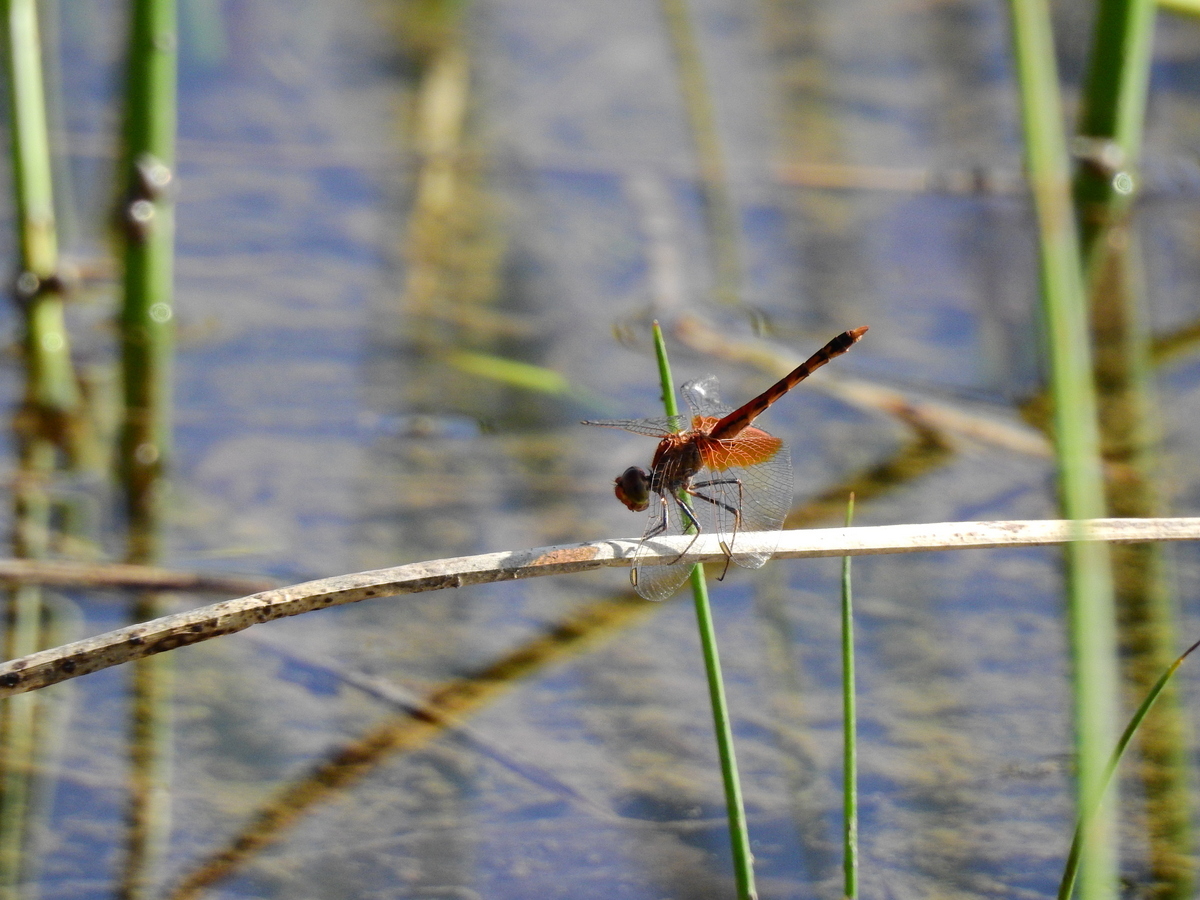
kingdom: Animalia
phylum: Arthropoda
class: Insecta
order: Odonata
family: Libellulidae
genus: Erythrodiplax
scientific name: Erythrodiplax corallina
